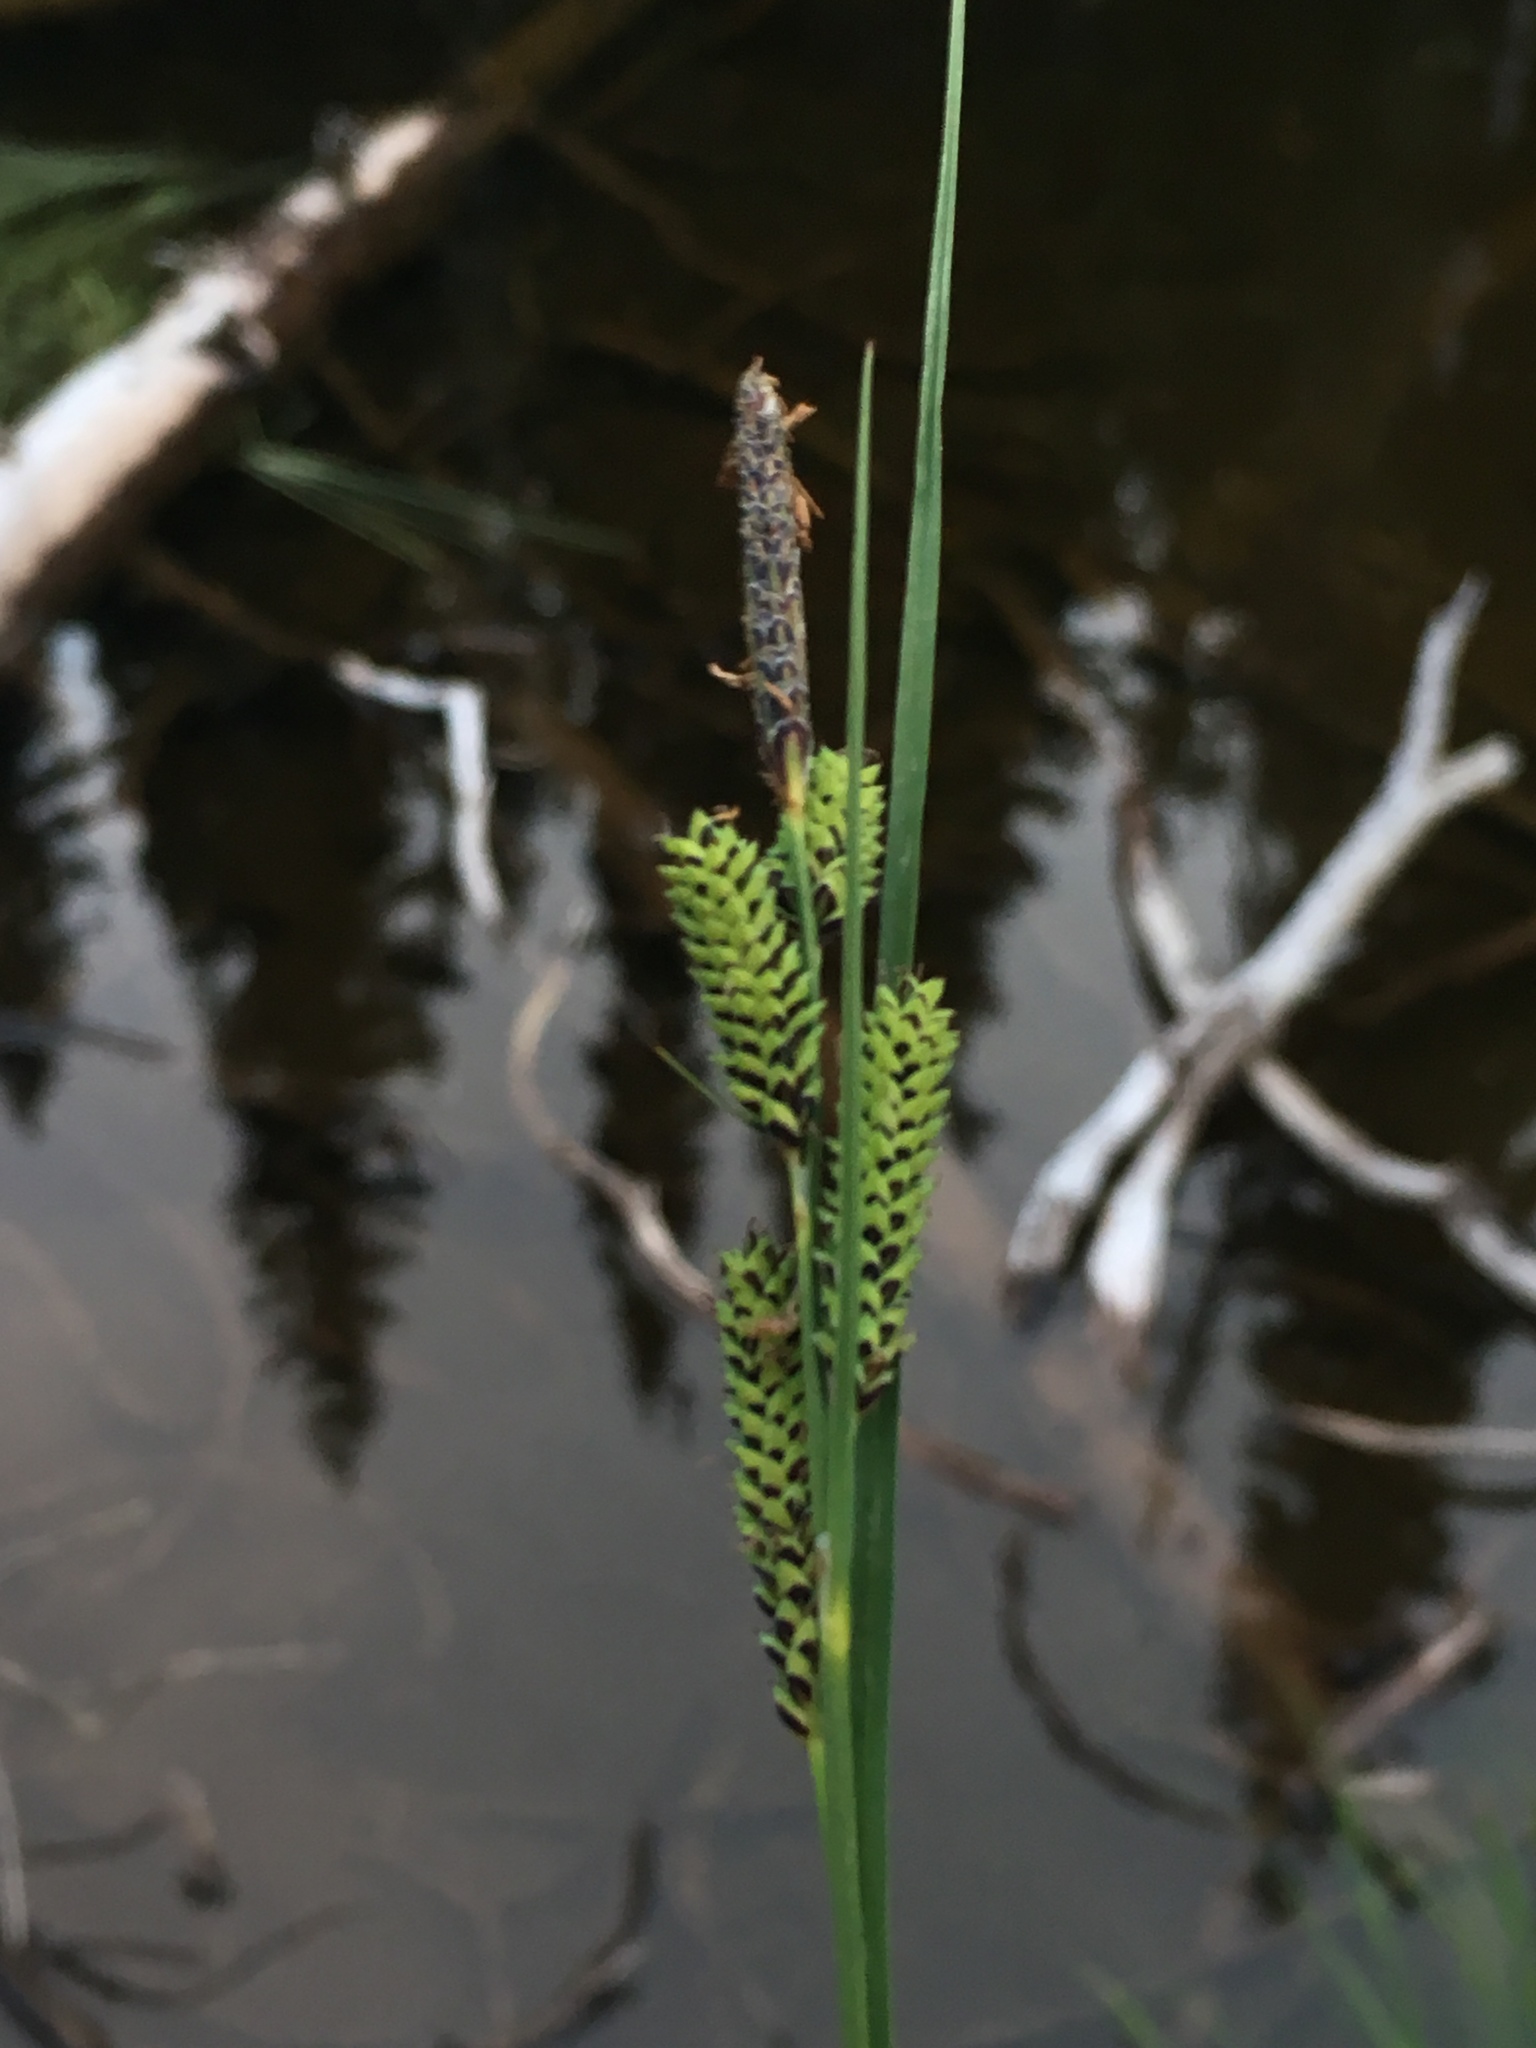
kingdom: Plantae
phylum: Tracheophyta
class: Liliopsida
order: Poales
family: Cyperaceae
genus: Carex
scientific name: Carex kelloggii
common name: Kellogg's sedge
